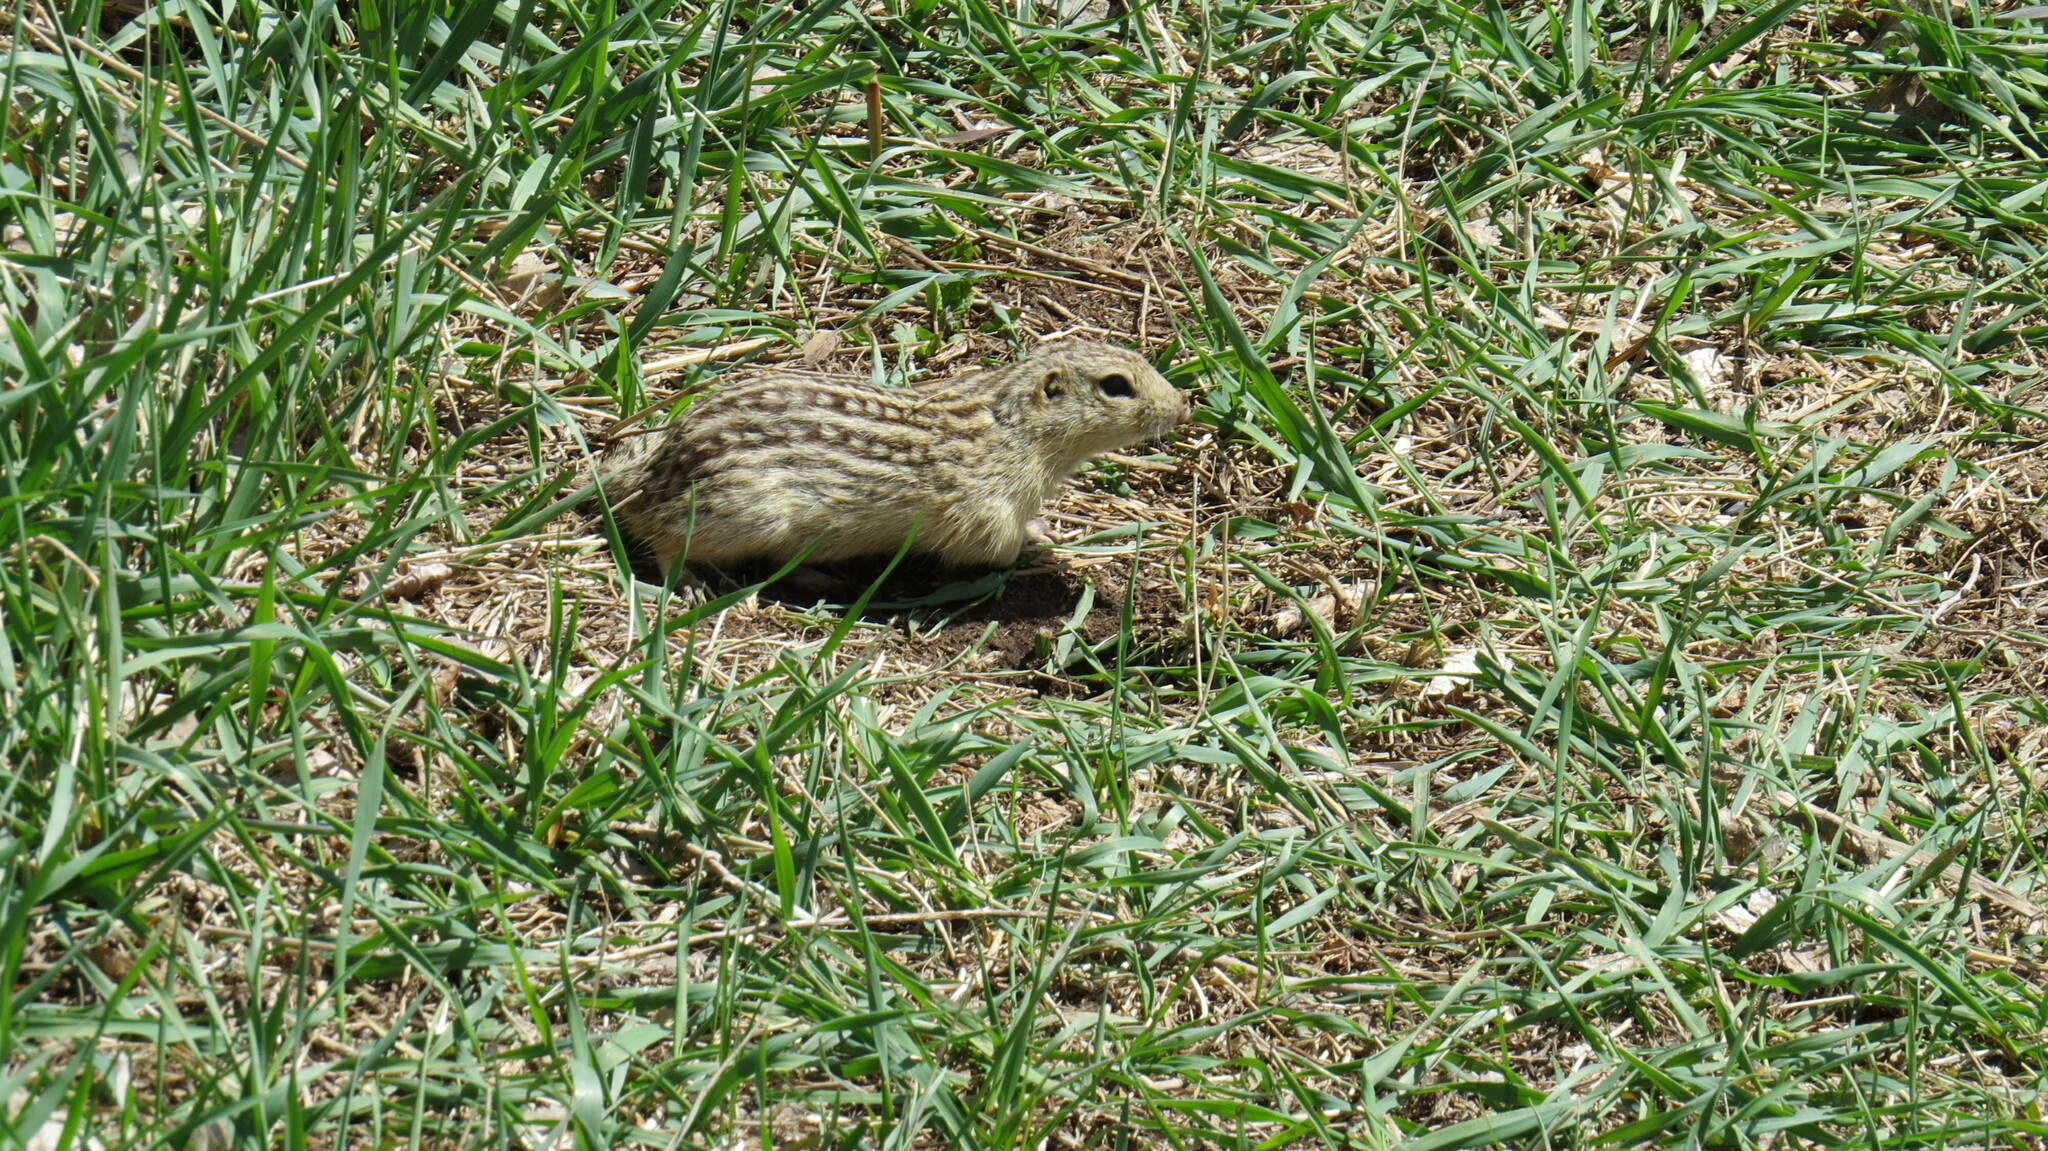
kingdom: Animalia
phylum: Chordata
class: Mammalia
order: Rodentia
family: Sciuridae
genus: Ictidomys
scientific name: Ictidomys tridecemlineatus
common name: Thirteen-lined ground squirrel
